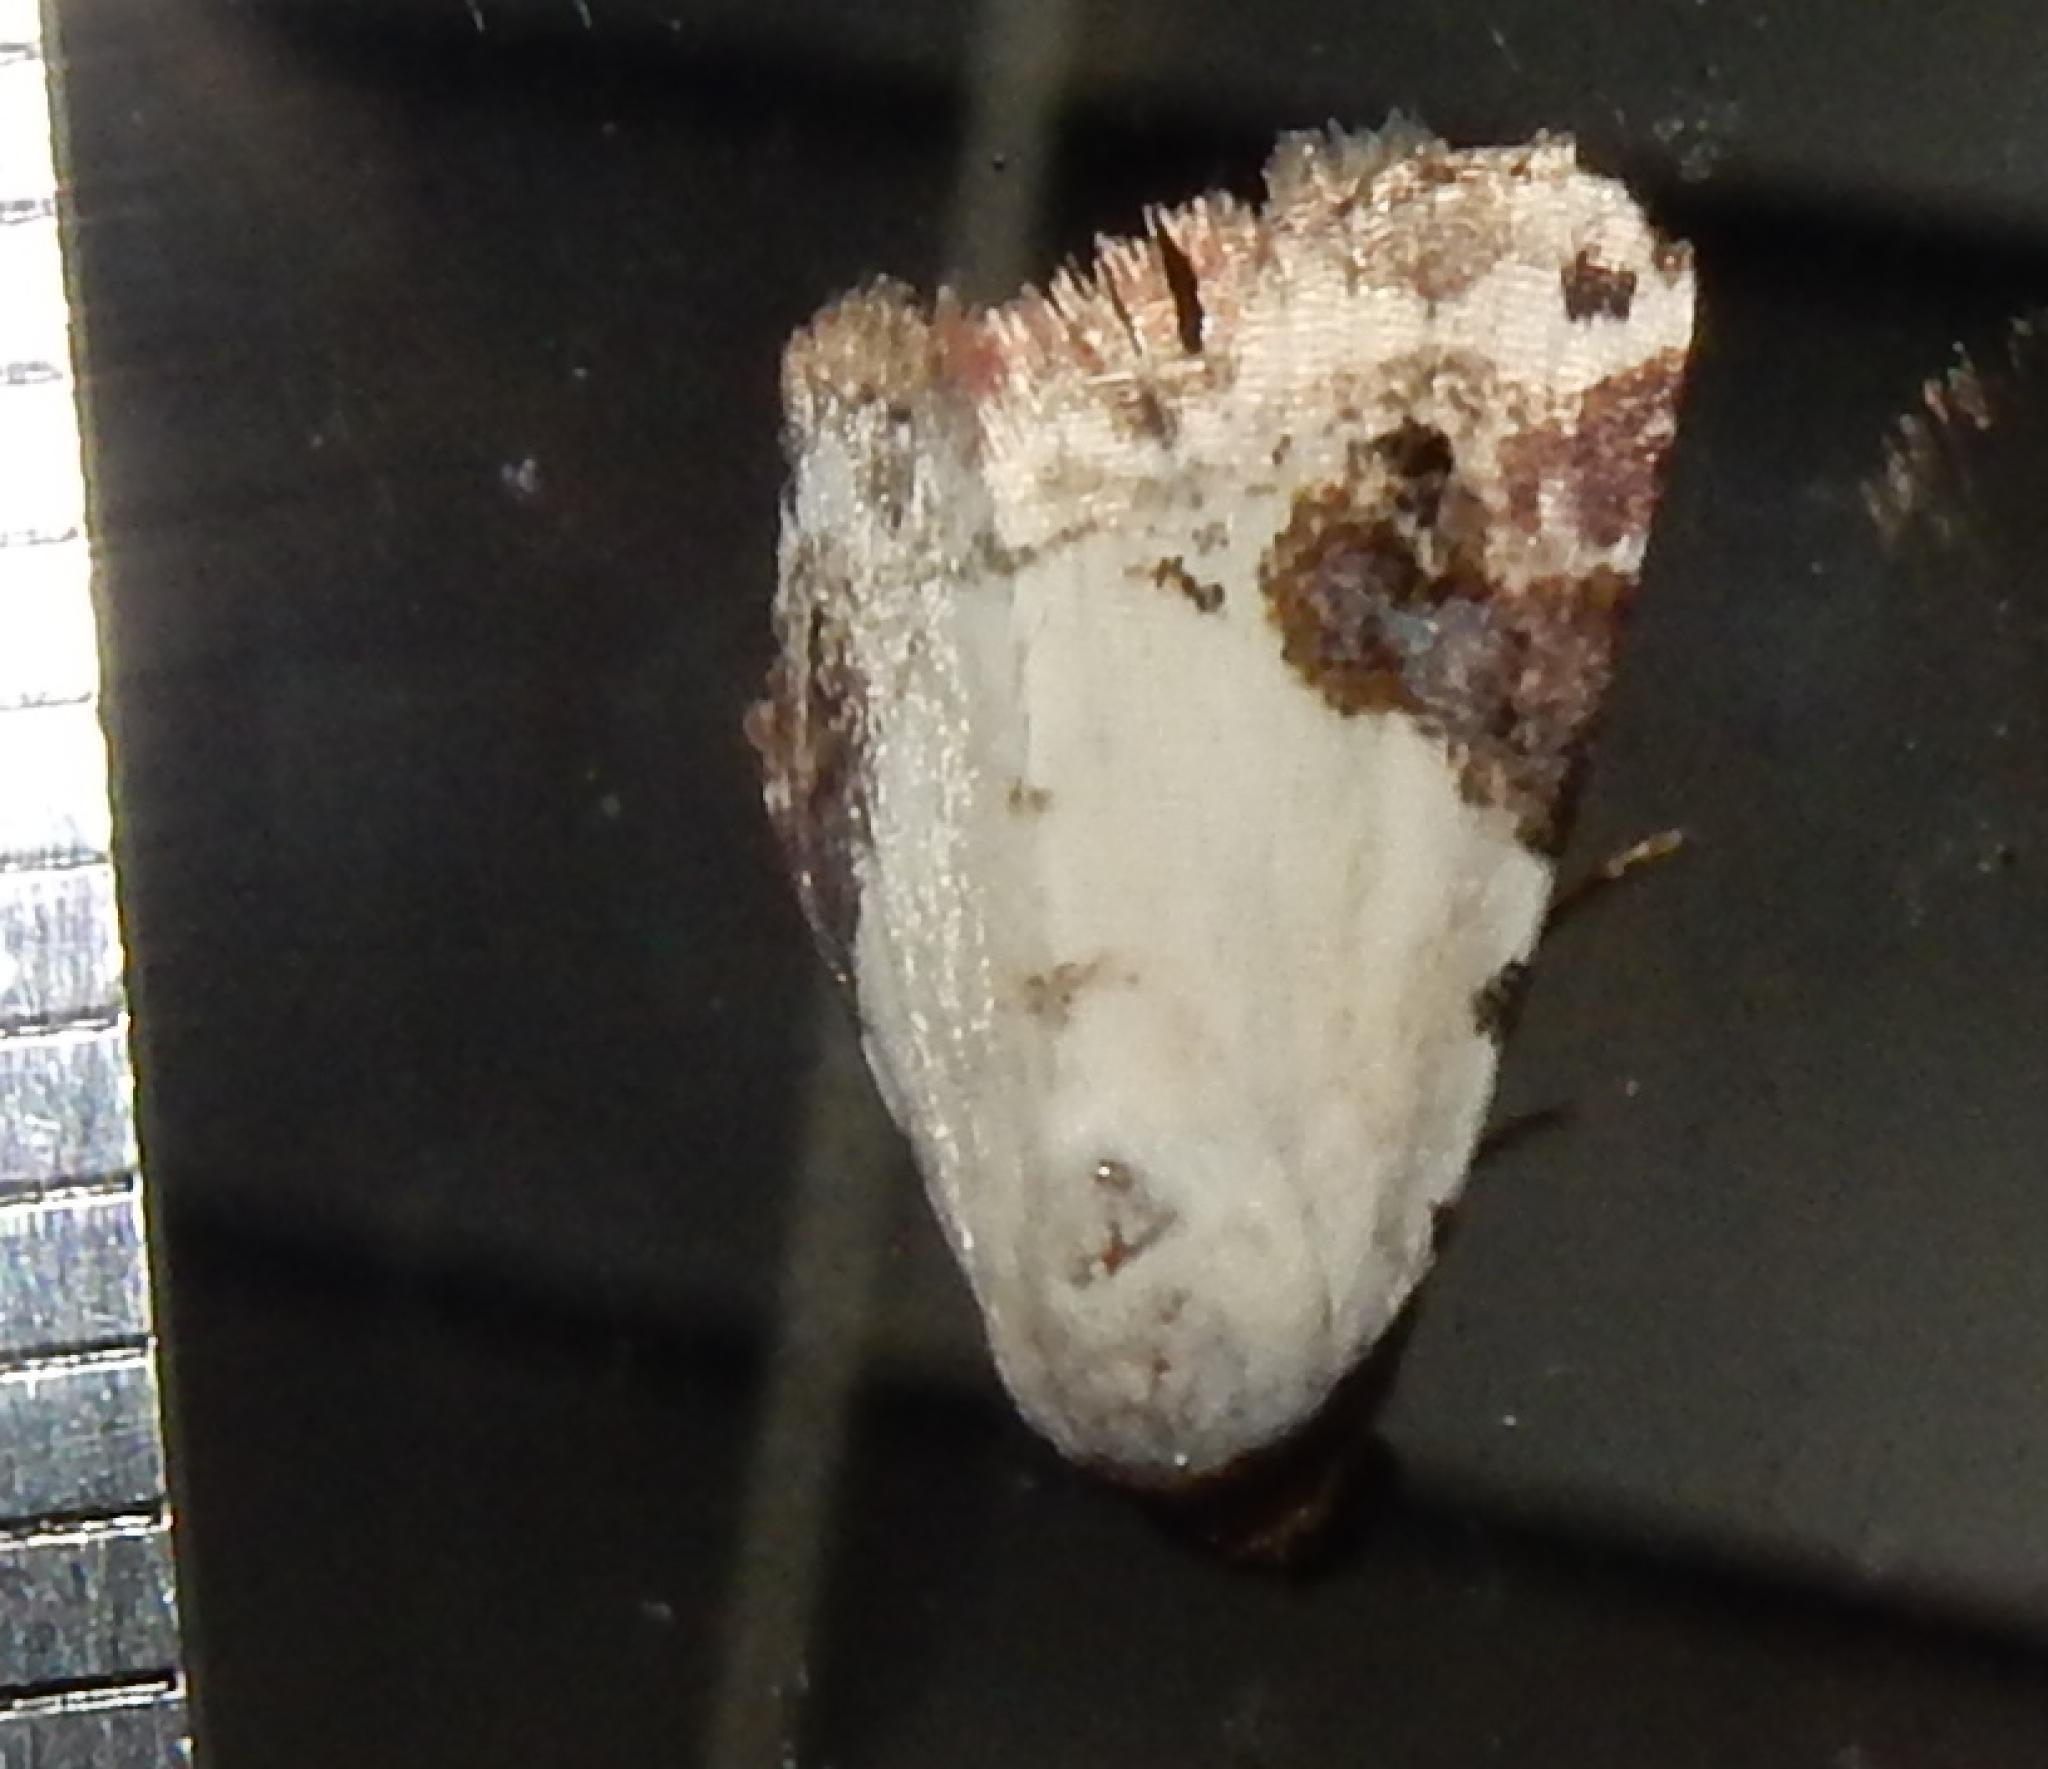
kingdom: Animalia
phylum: Arthropoda
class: Insecta
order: Lepidoptera
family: Noctuidae
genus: Eublemma
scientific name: Eublemma ecthaemata
